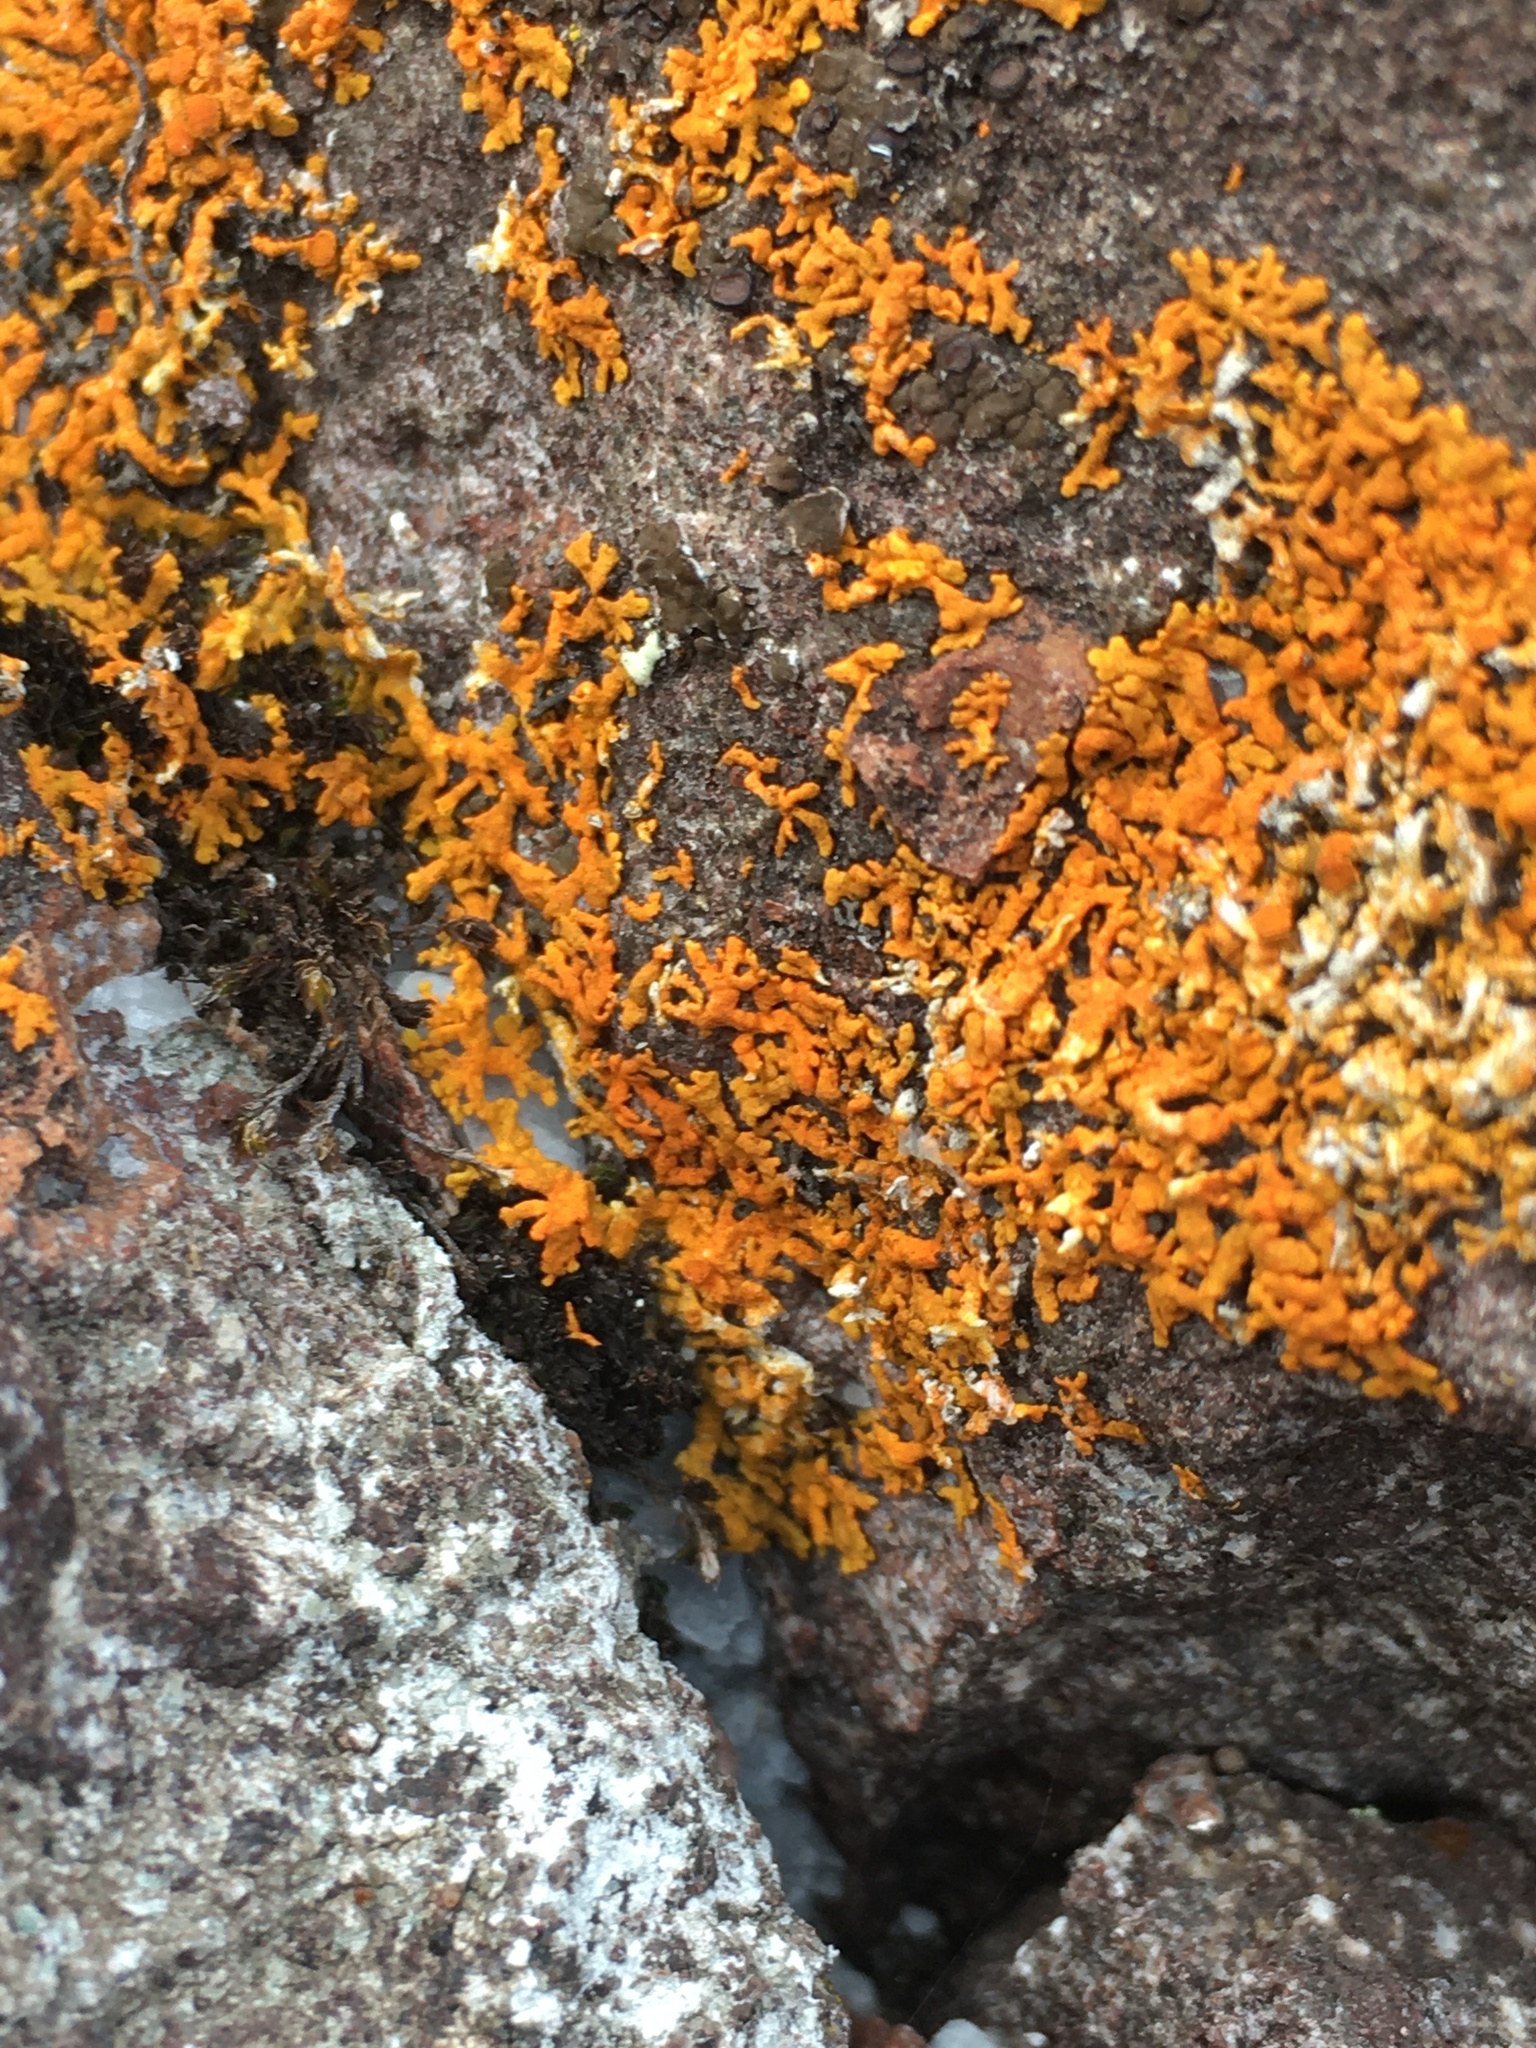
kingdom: Fungi
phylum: Ascomycota
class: Lecanoromycetes
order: Teloschistales
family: Teloschistaceae
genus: Xanthoria
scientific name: Xanthoria elegans
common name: Elegant sunburst lichen
